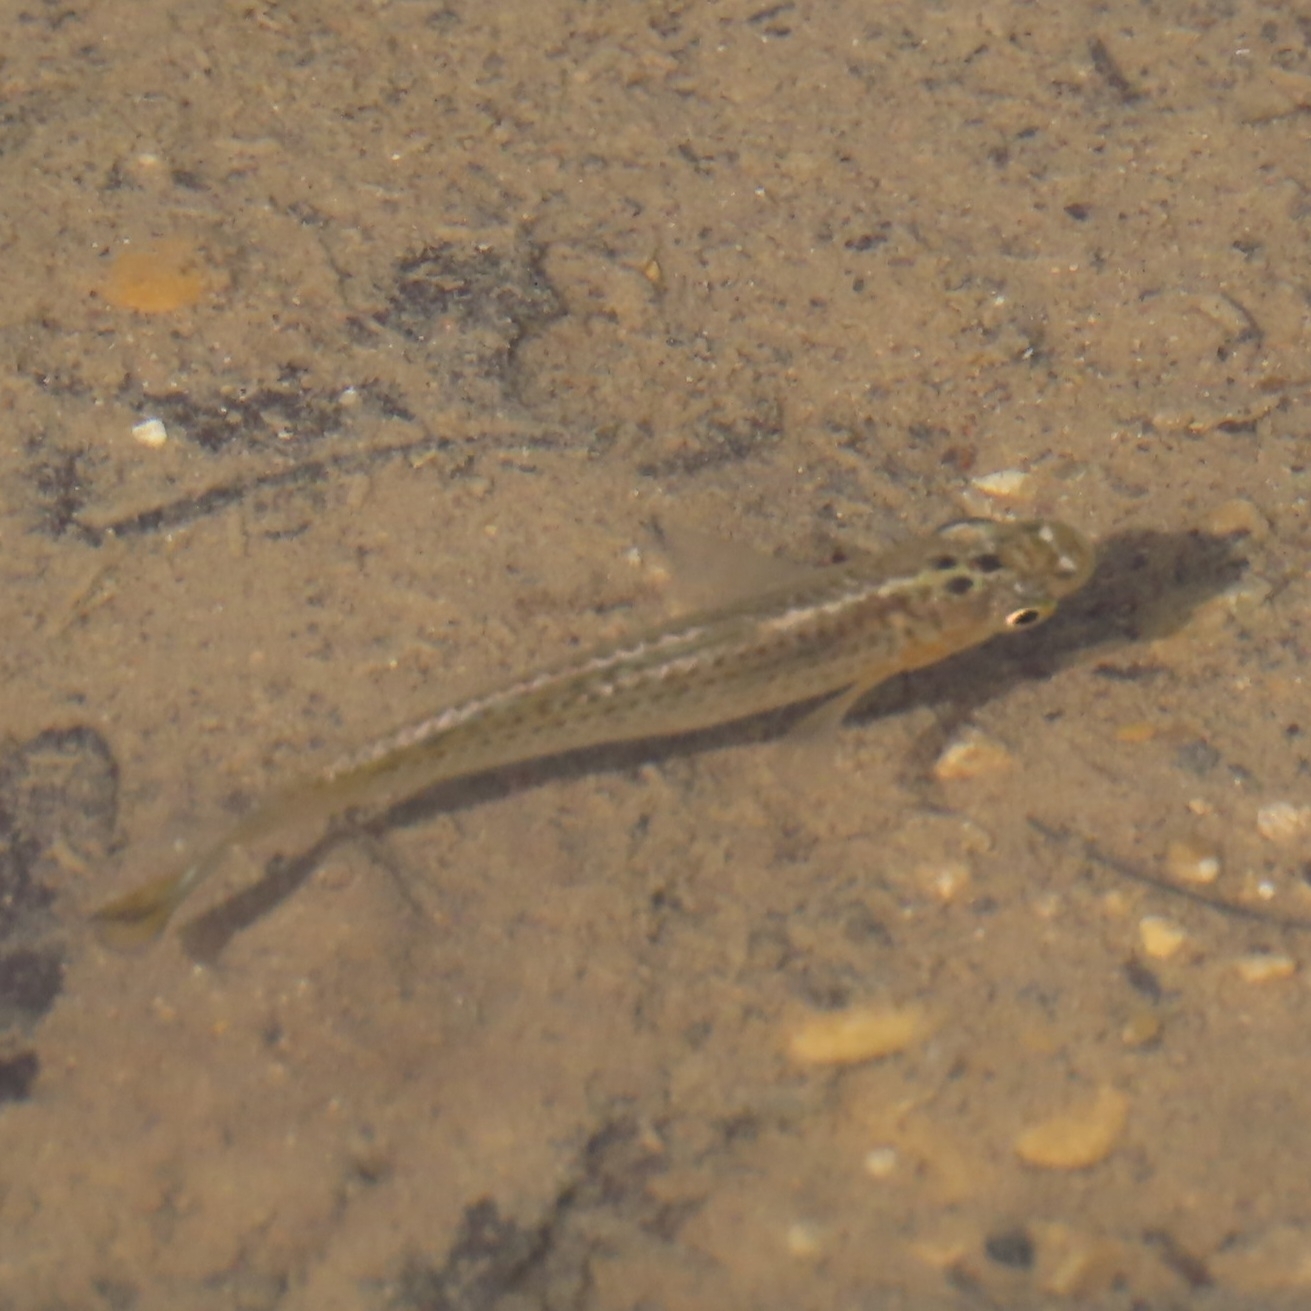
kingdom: Animalia
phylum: Chordata
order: Cyprinodontiformes
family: Poeciliidae
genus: Poecilia
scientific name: Poecilia latipinna
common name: Sailfin molly
